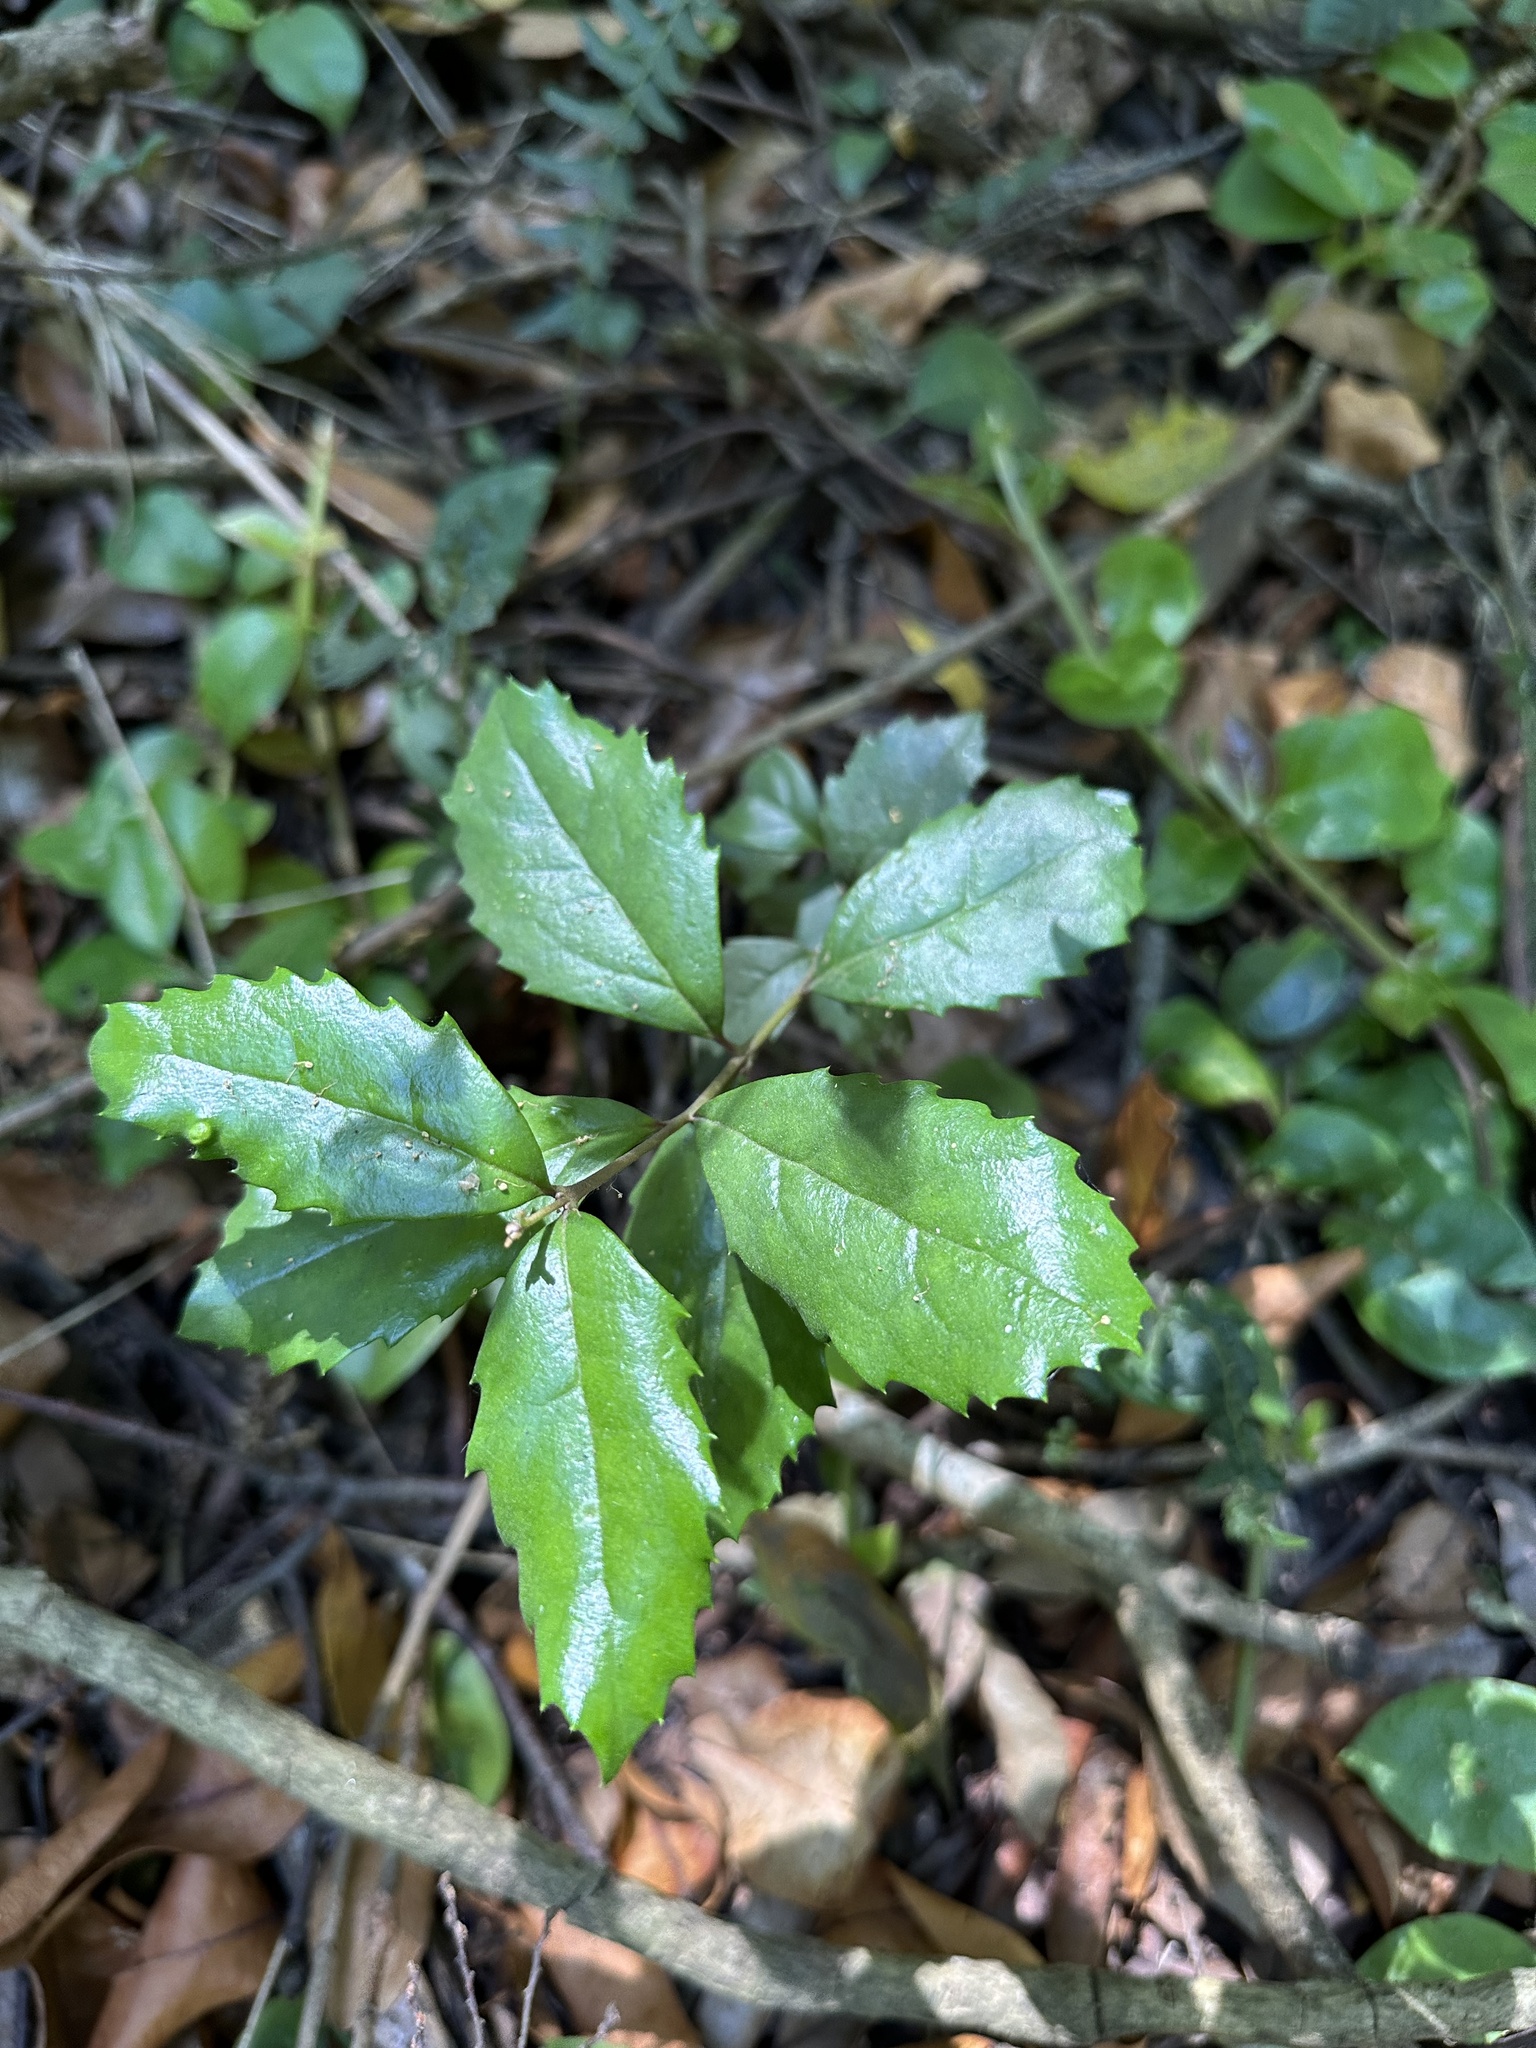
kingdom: Plantae
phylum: Tracheophyta
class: Magnoliopsida
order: Proteales
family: Proteaceae
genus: Lomatia
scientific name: Lomatia dentata
